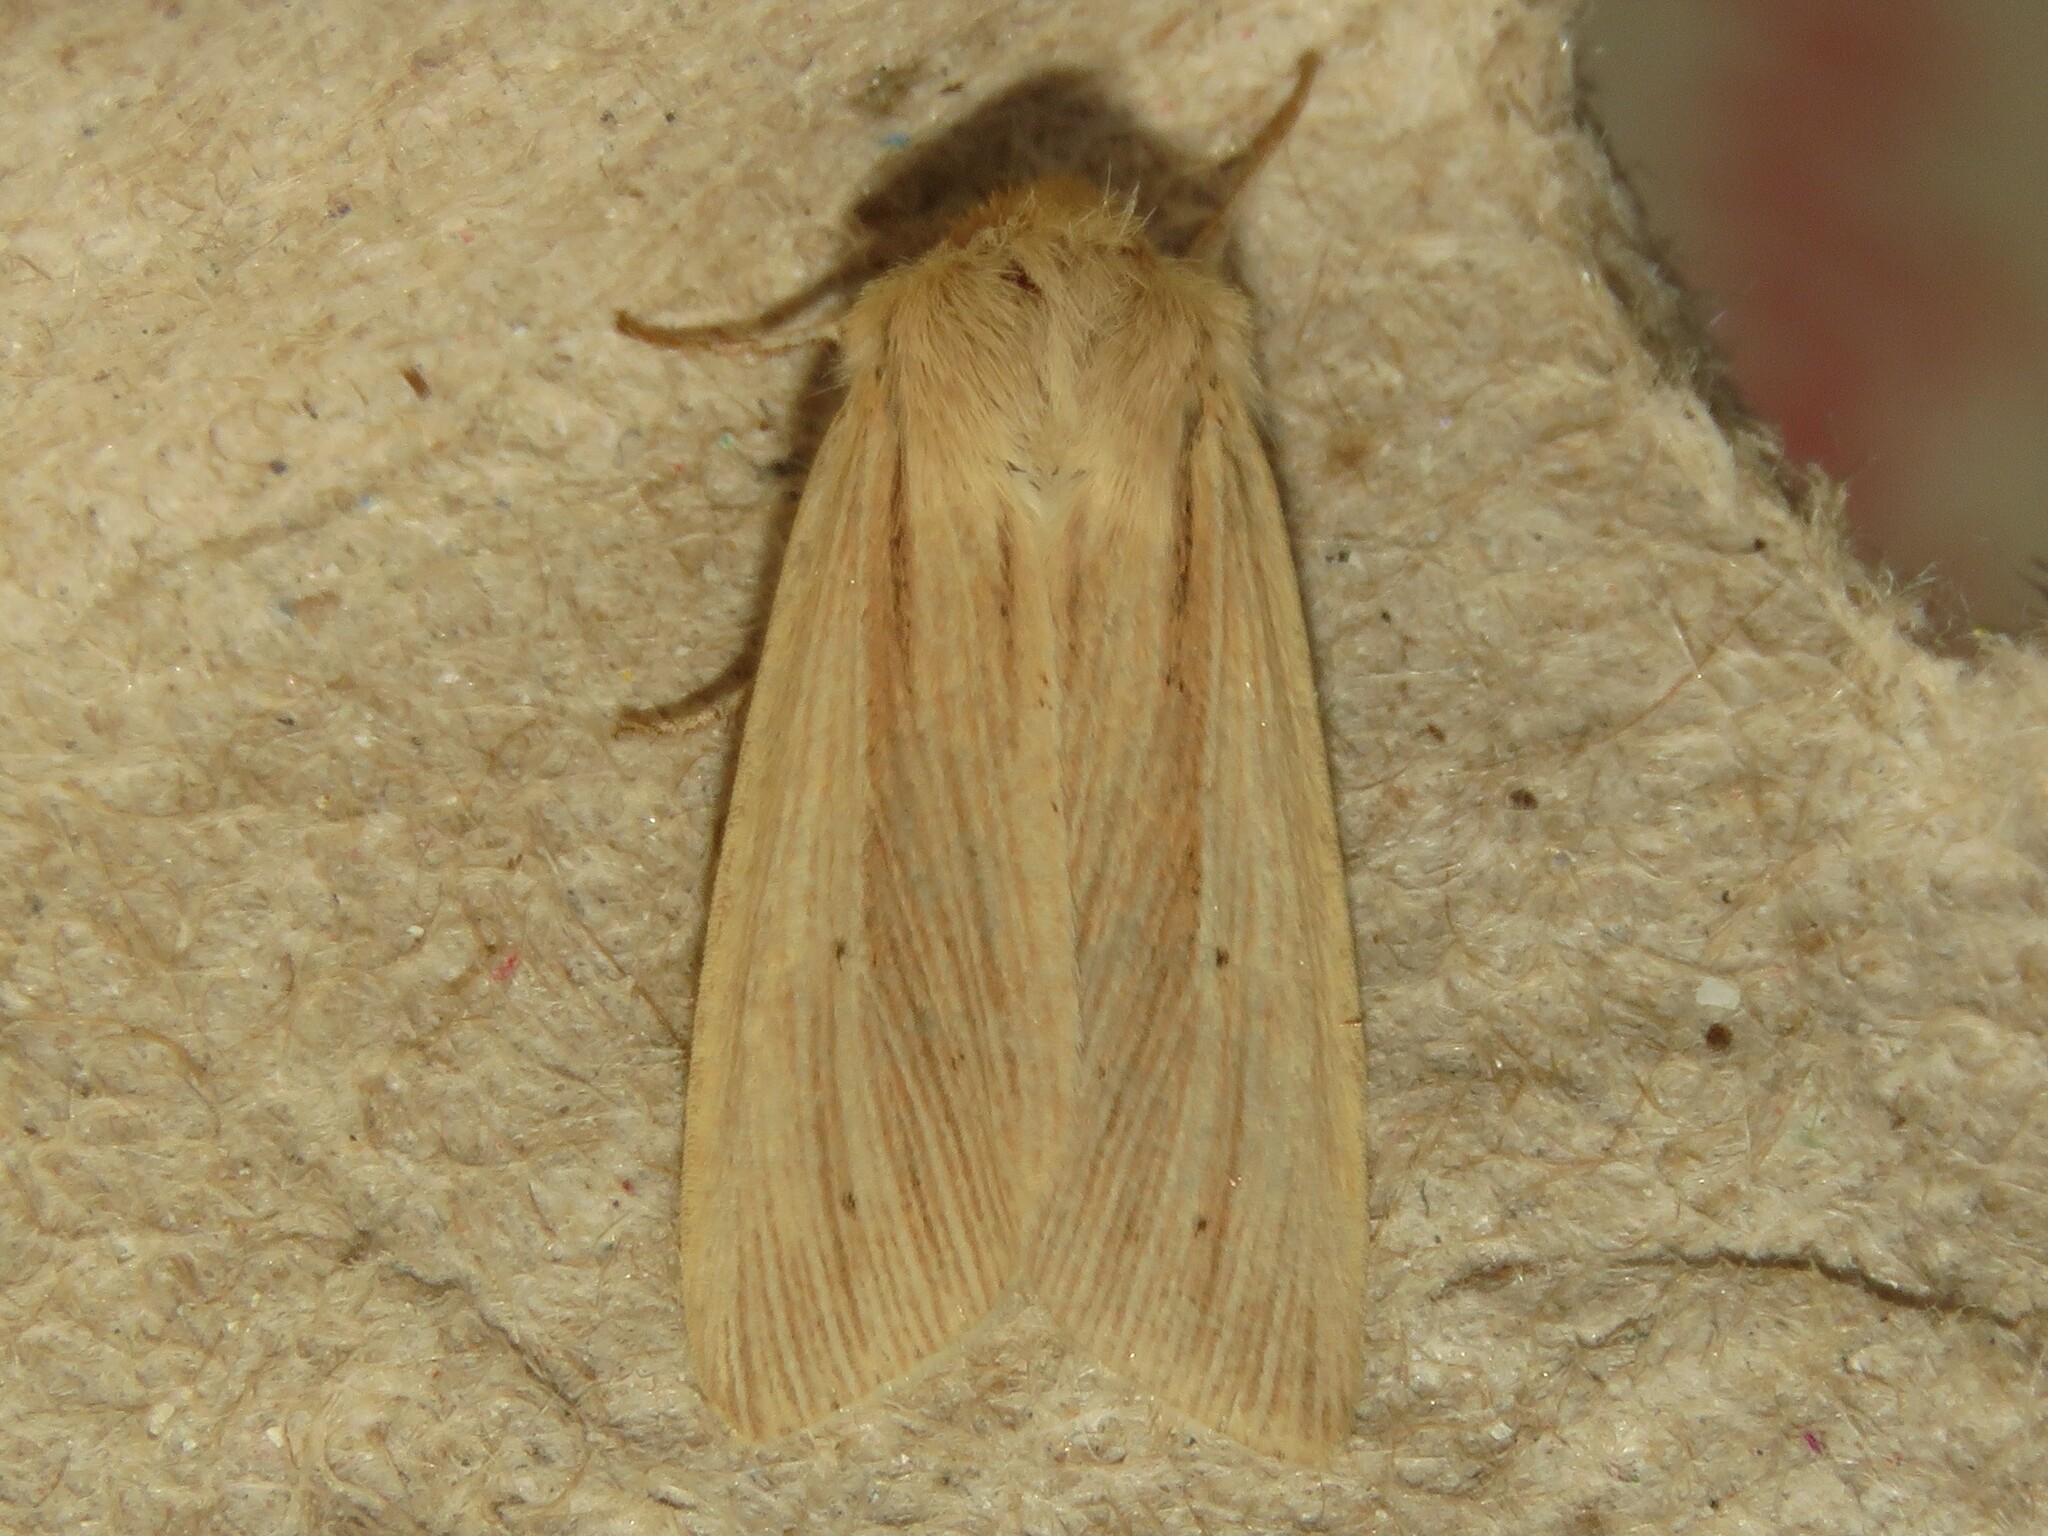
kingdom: Animalia
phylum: Arthropoda
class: Insecta
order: Lepidoptera
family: Noctuidae
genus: Mythimna
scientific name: Mythimna oxygala
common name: Lesser wainscot
